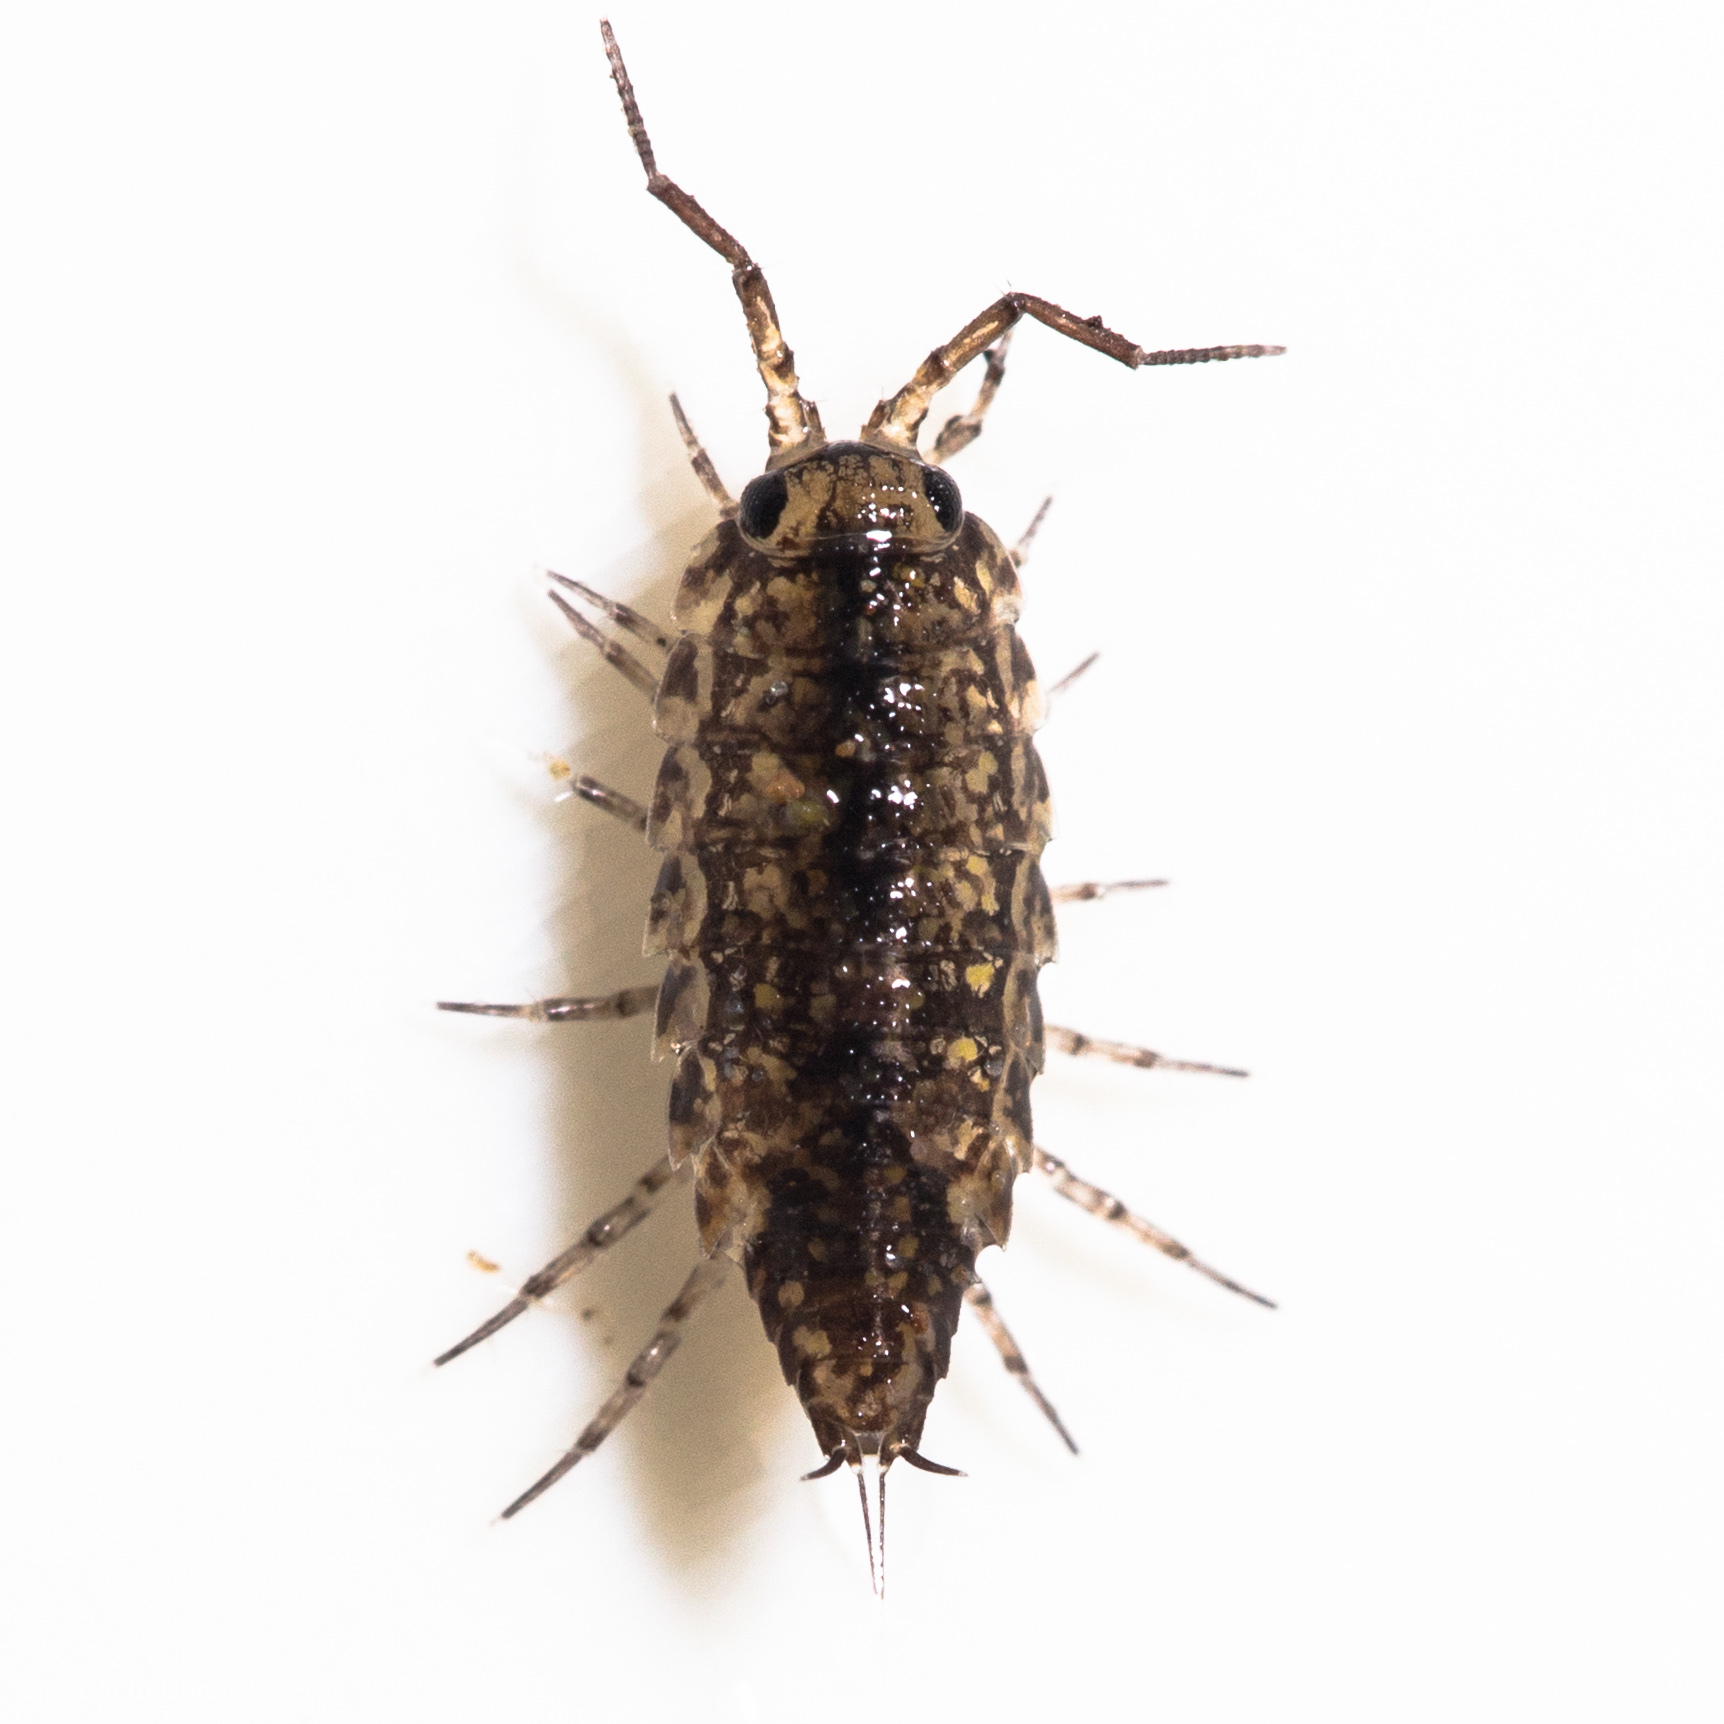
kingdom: Animalia
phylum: Arthropoda
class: Malacostraca
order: Isopoda
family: Ligiidae
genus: Ligidium
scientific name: Ligidium latum
